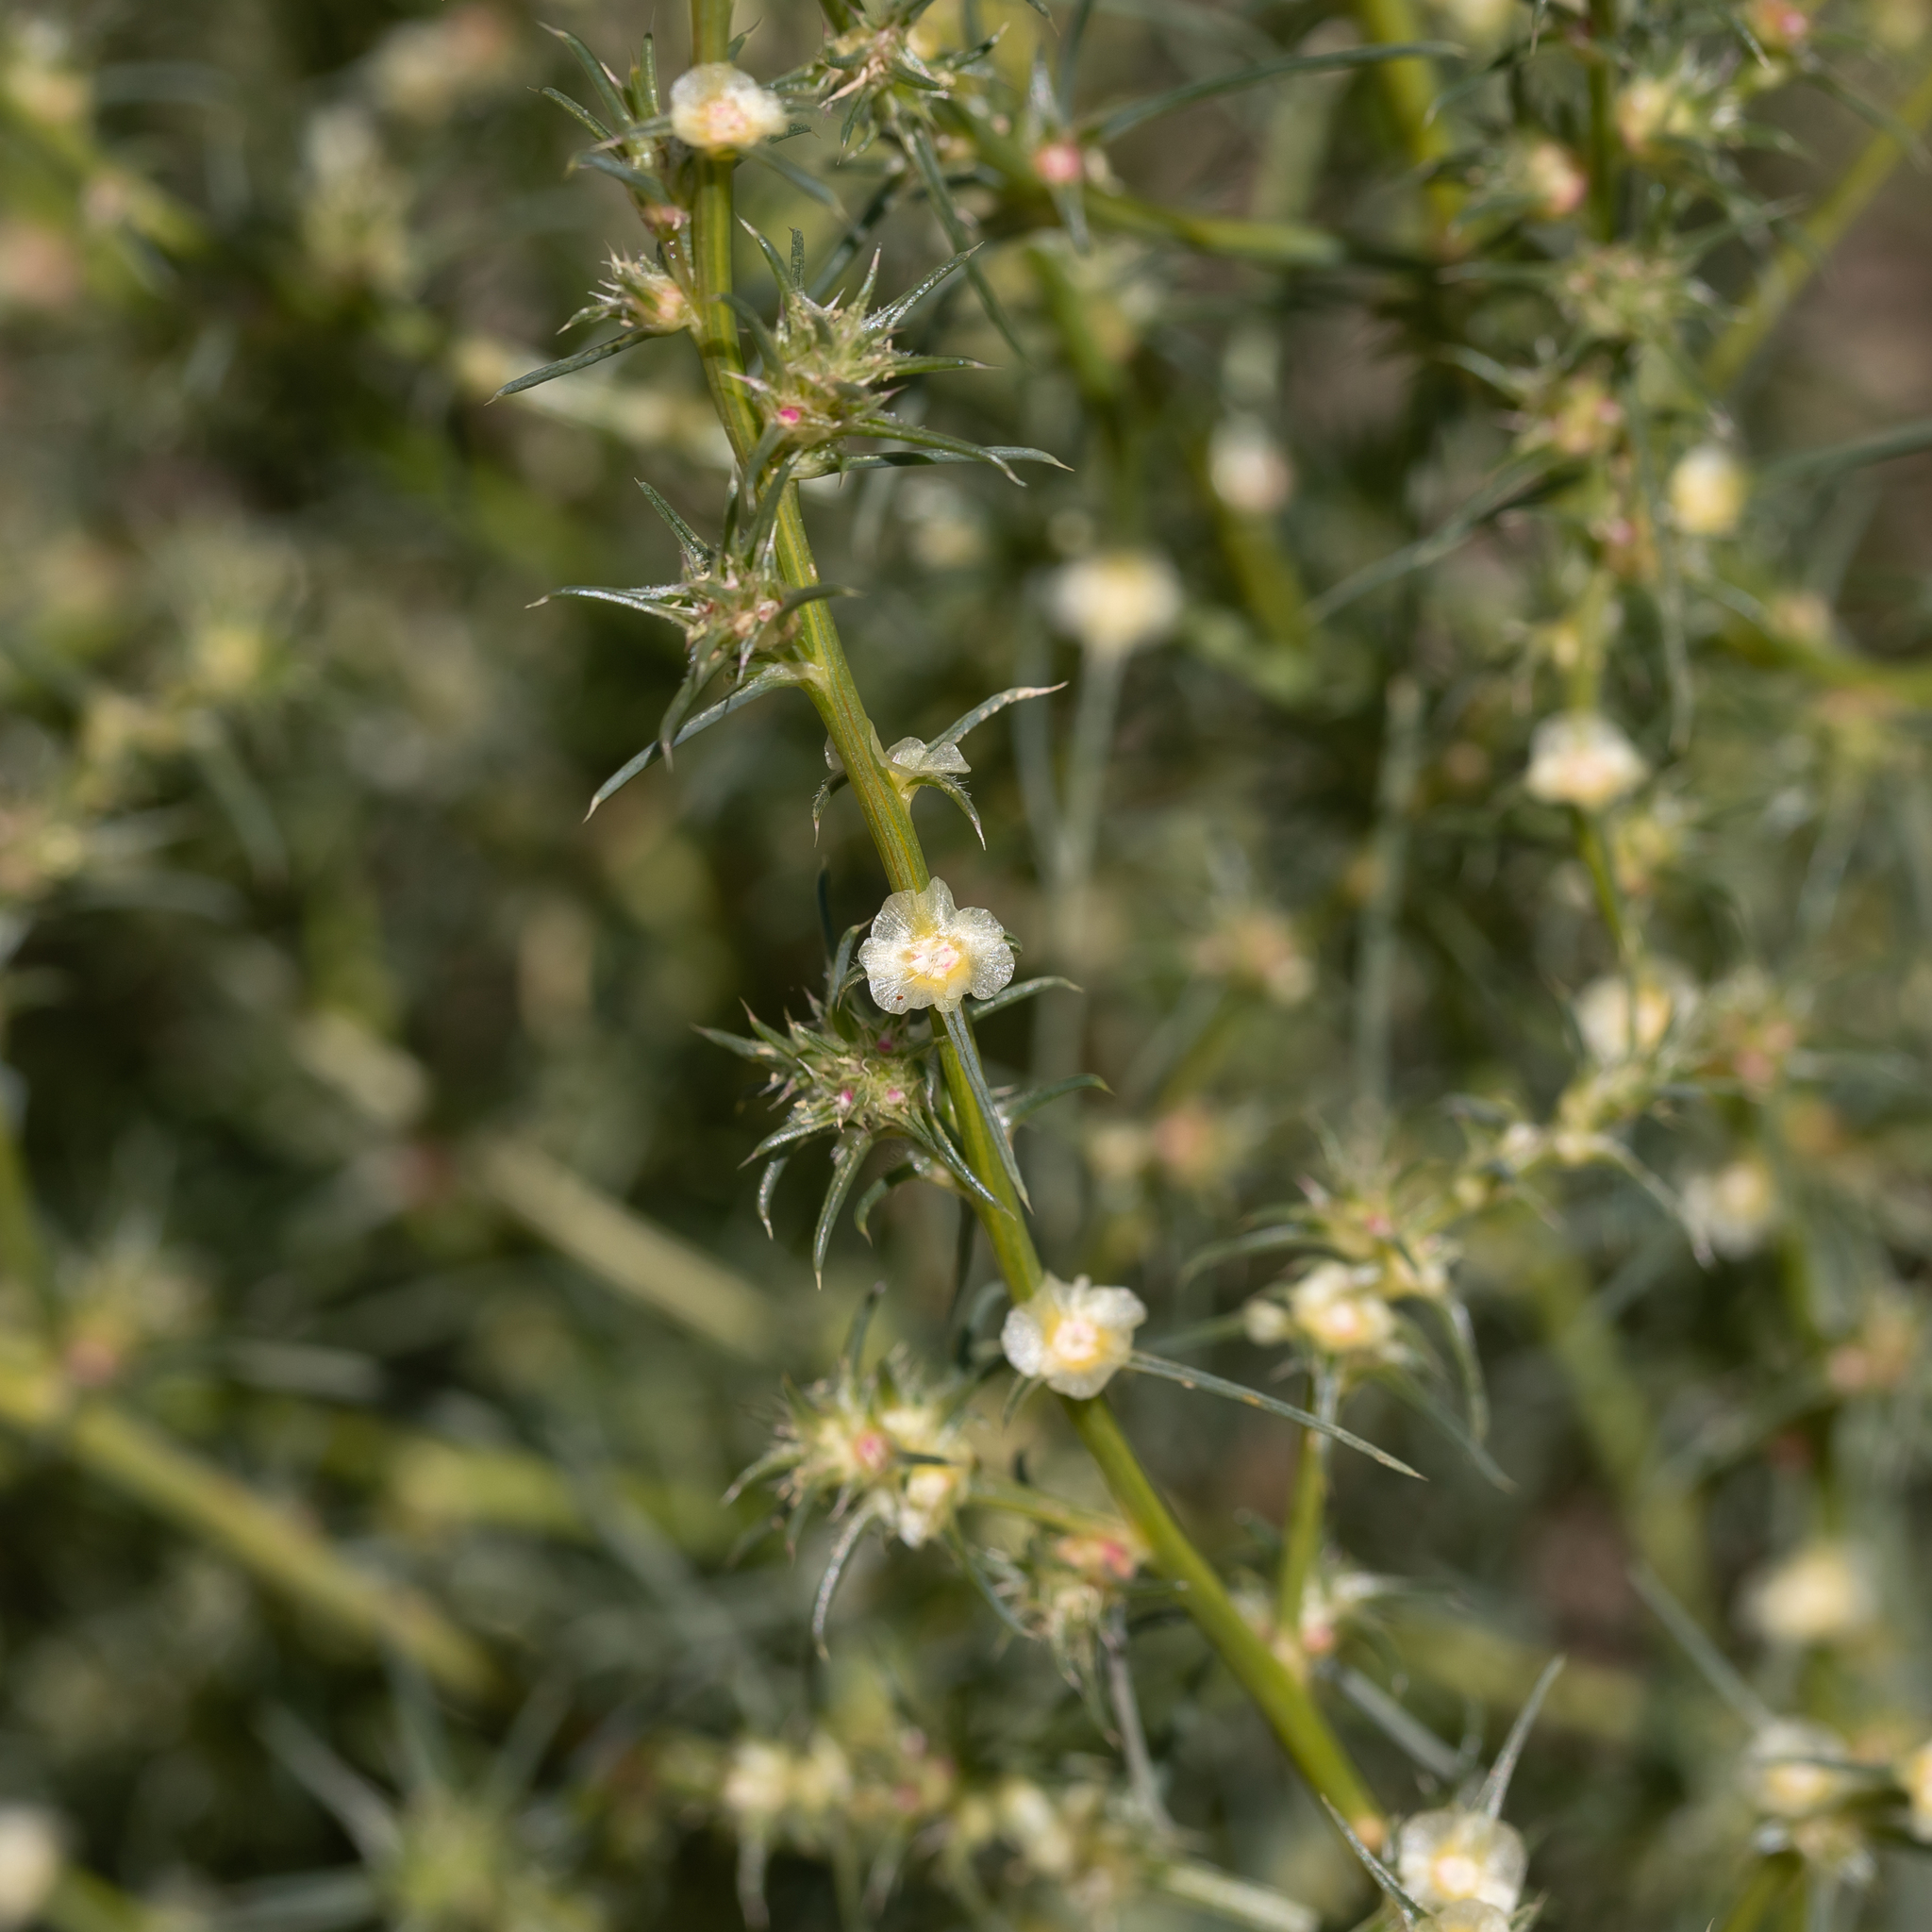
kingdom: Plantae
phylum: Tracheophyta
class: Magnoliopsida
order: Caryophyllales
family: Amaranthaceae
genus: Salsola
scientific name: Salsola australis
